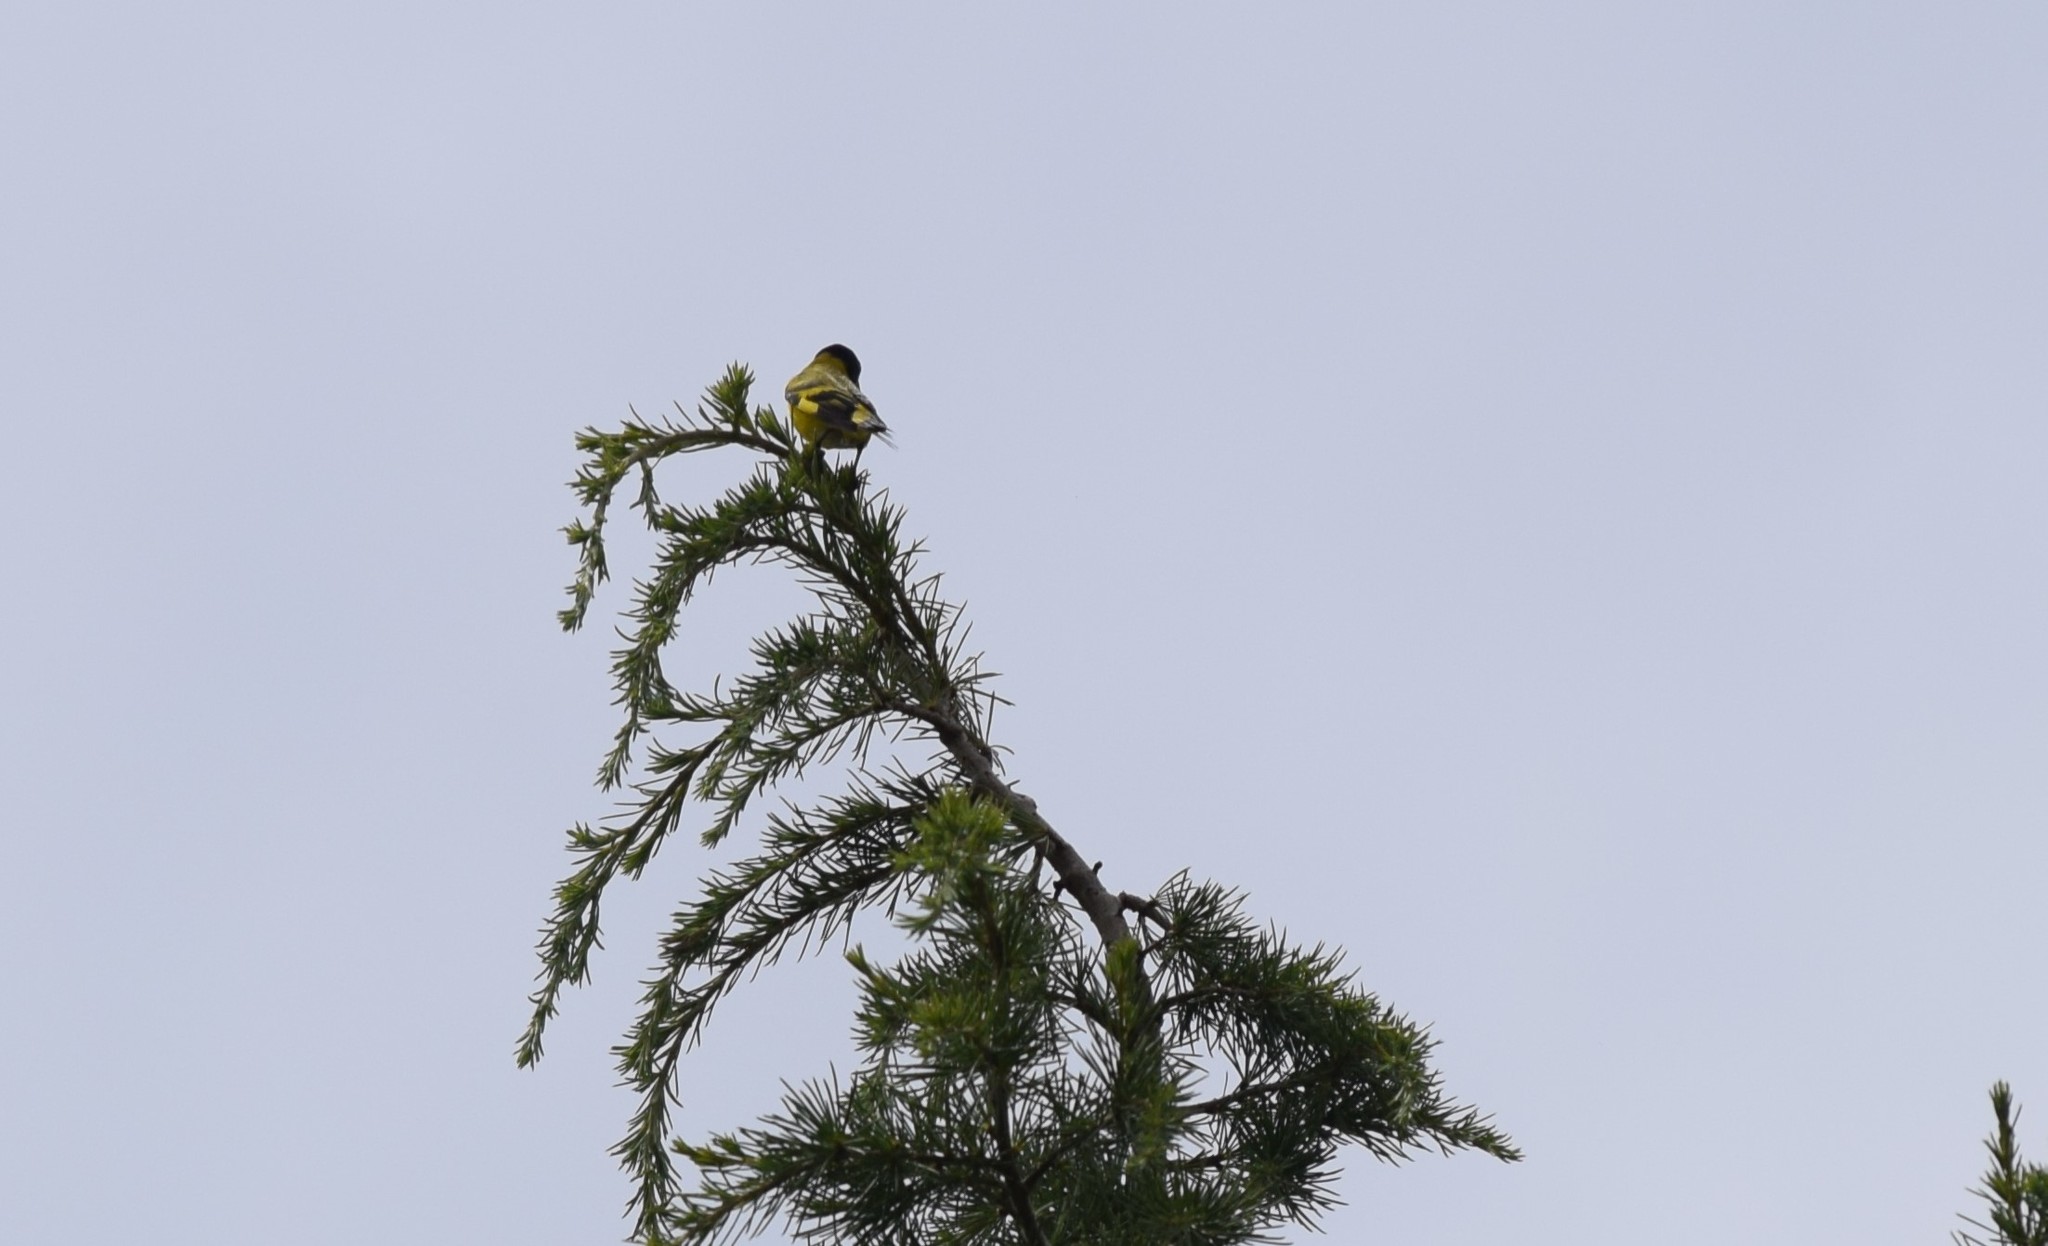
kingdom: Animalia
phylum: Chordata
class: Aves
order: Passeriformes
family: Fringillidae
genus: Spinus
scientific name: Spinus magellanicus
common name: Hooded siskin
